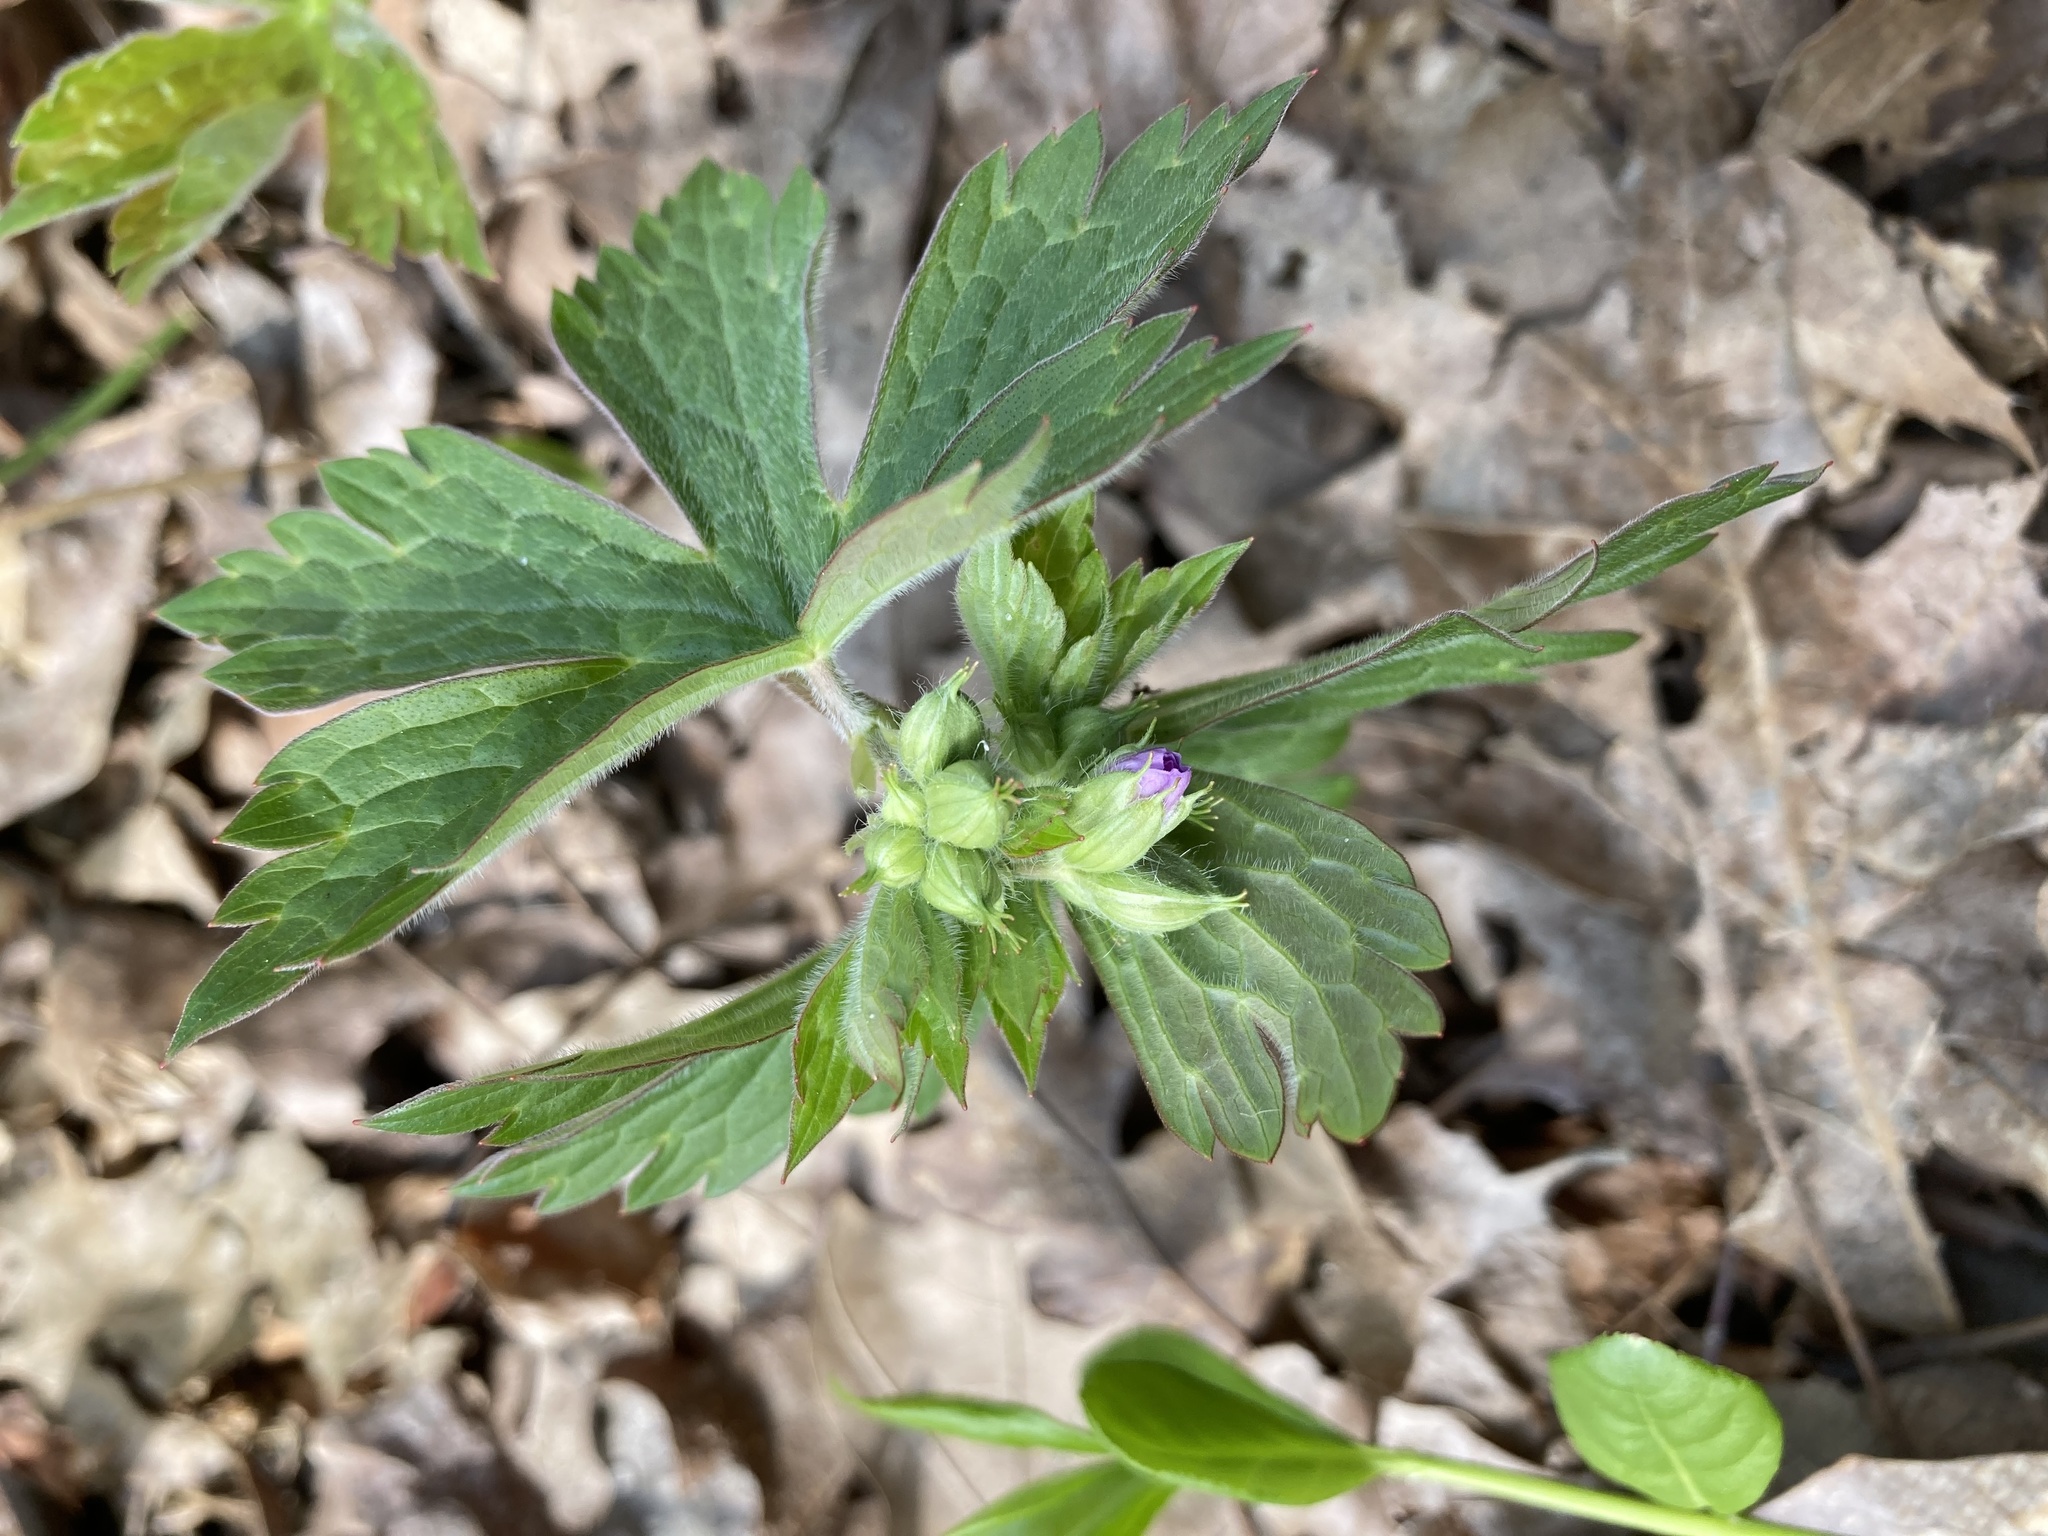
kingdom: Plantae
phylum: Tracheophyta
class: Magnoliopsida
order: Geraniales
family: Geraniaceae
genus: Geranium
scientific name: Geranium maculatum
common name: Spotted geranium
